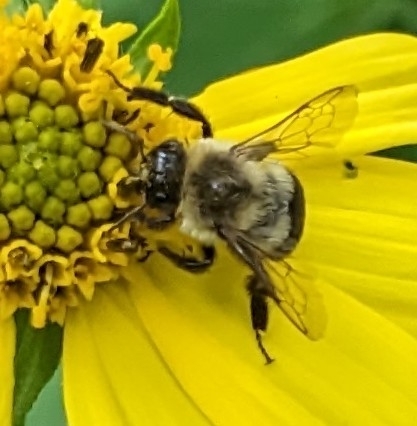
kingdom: Animalia
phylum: Arthropoda
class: Insecta
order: Hymenoptera
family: Apidae
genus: Bombus
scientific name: Bombus impatiens
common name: Common eastern bumble bee
